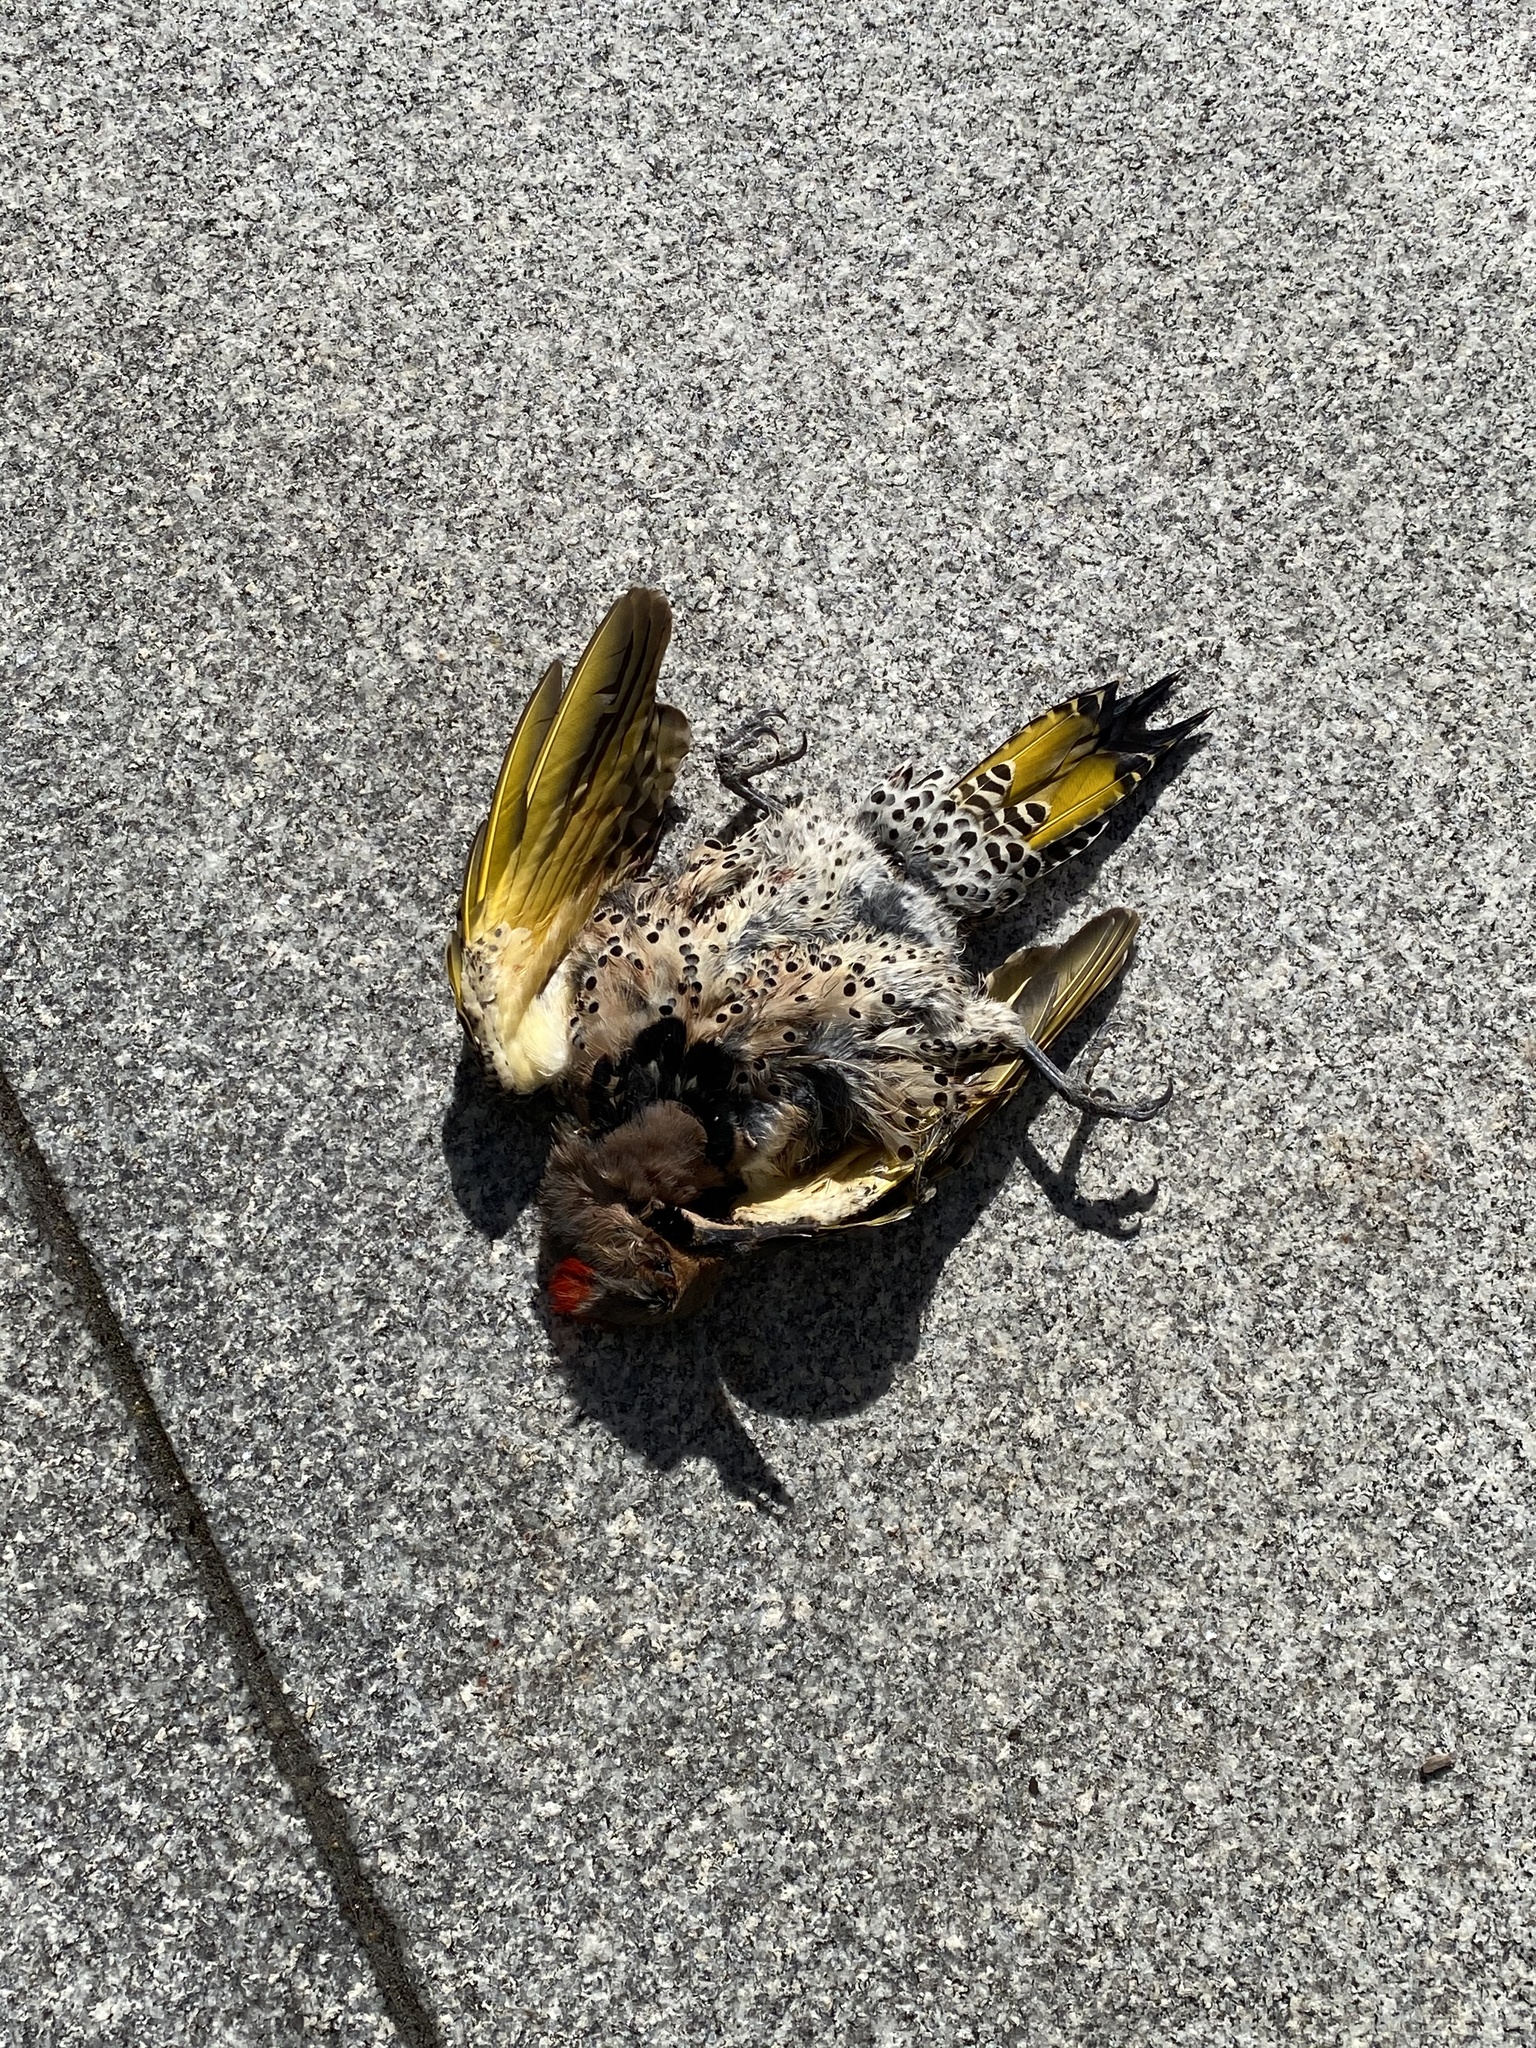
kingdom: Animalia
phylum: Chordata
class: Aves
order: Piciformes
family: Picidae
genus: Colaptes
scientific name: Colaptes auratus
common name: Northern flicker
